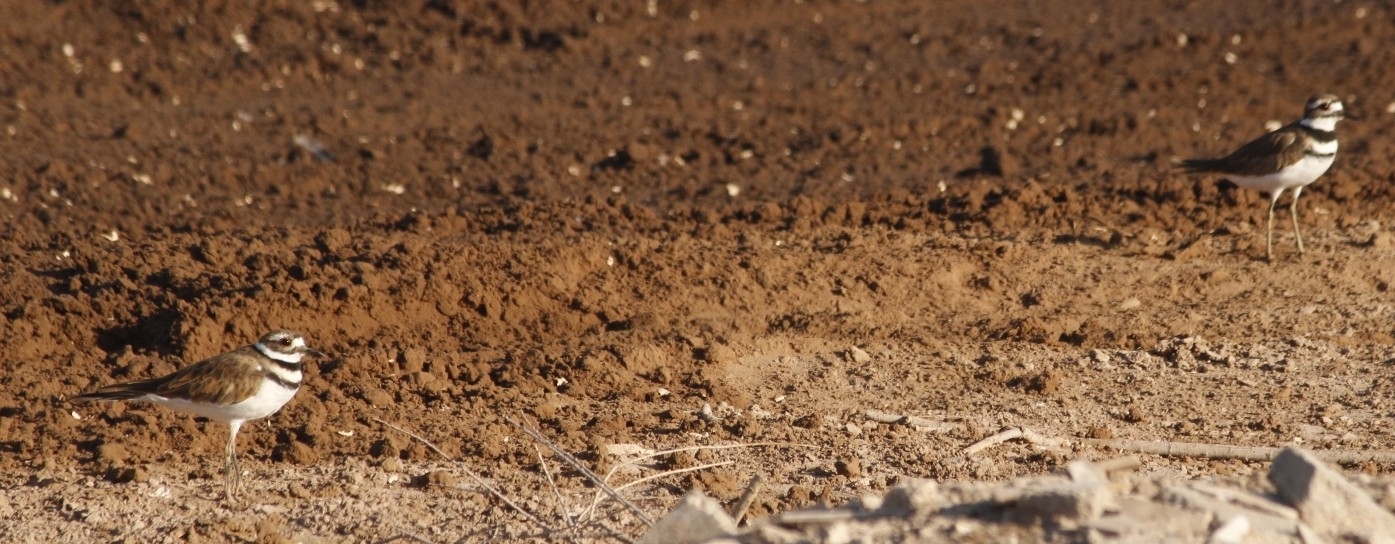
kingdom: Animalia
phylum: Chordata
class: Aves
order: Charadriiformes
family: Charadriidae
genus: Charadrius
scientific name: Charadrius vociferus
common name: Killdeer
